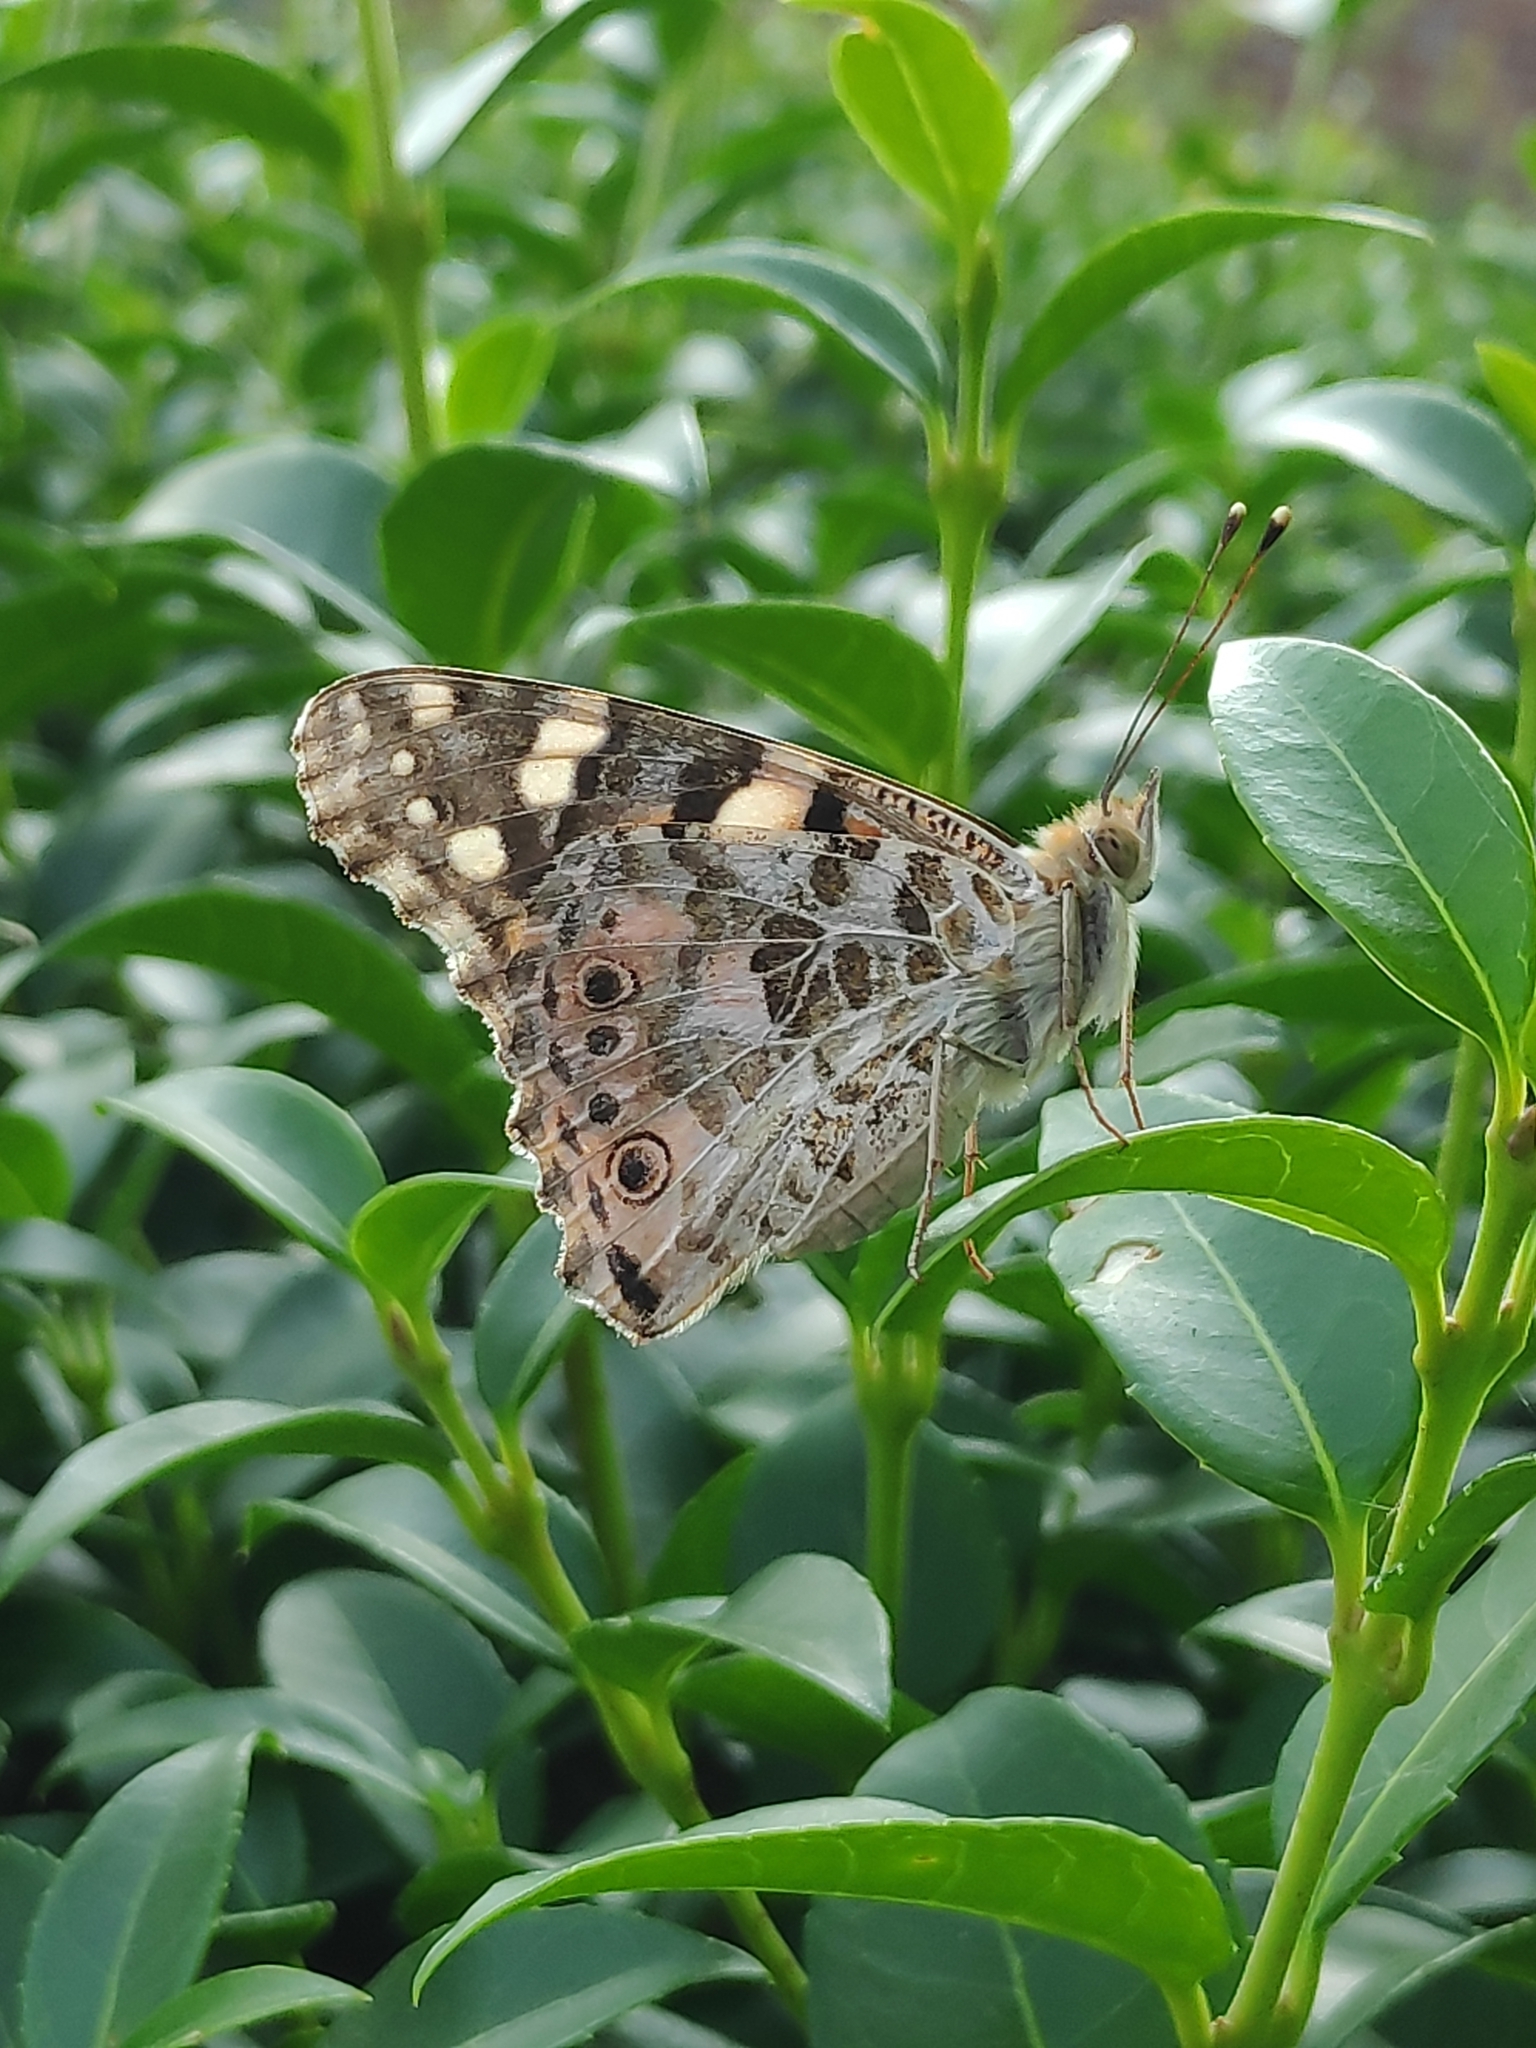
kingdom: Animalia
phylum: Arthropoda
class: Insecta
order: Lepidoptera
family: Nymphalidae
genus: Vanessa
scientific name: Vanessa cardui
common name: Painted lady
